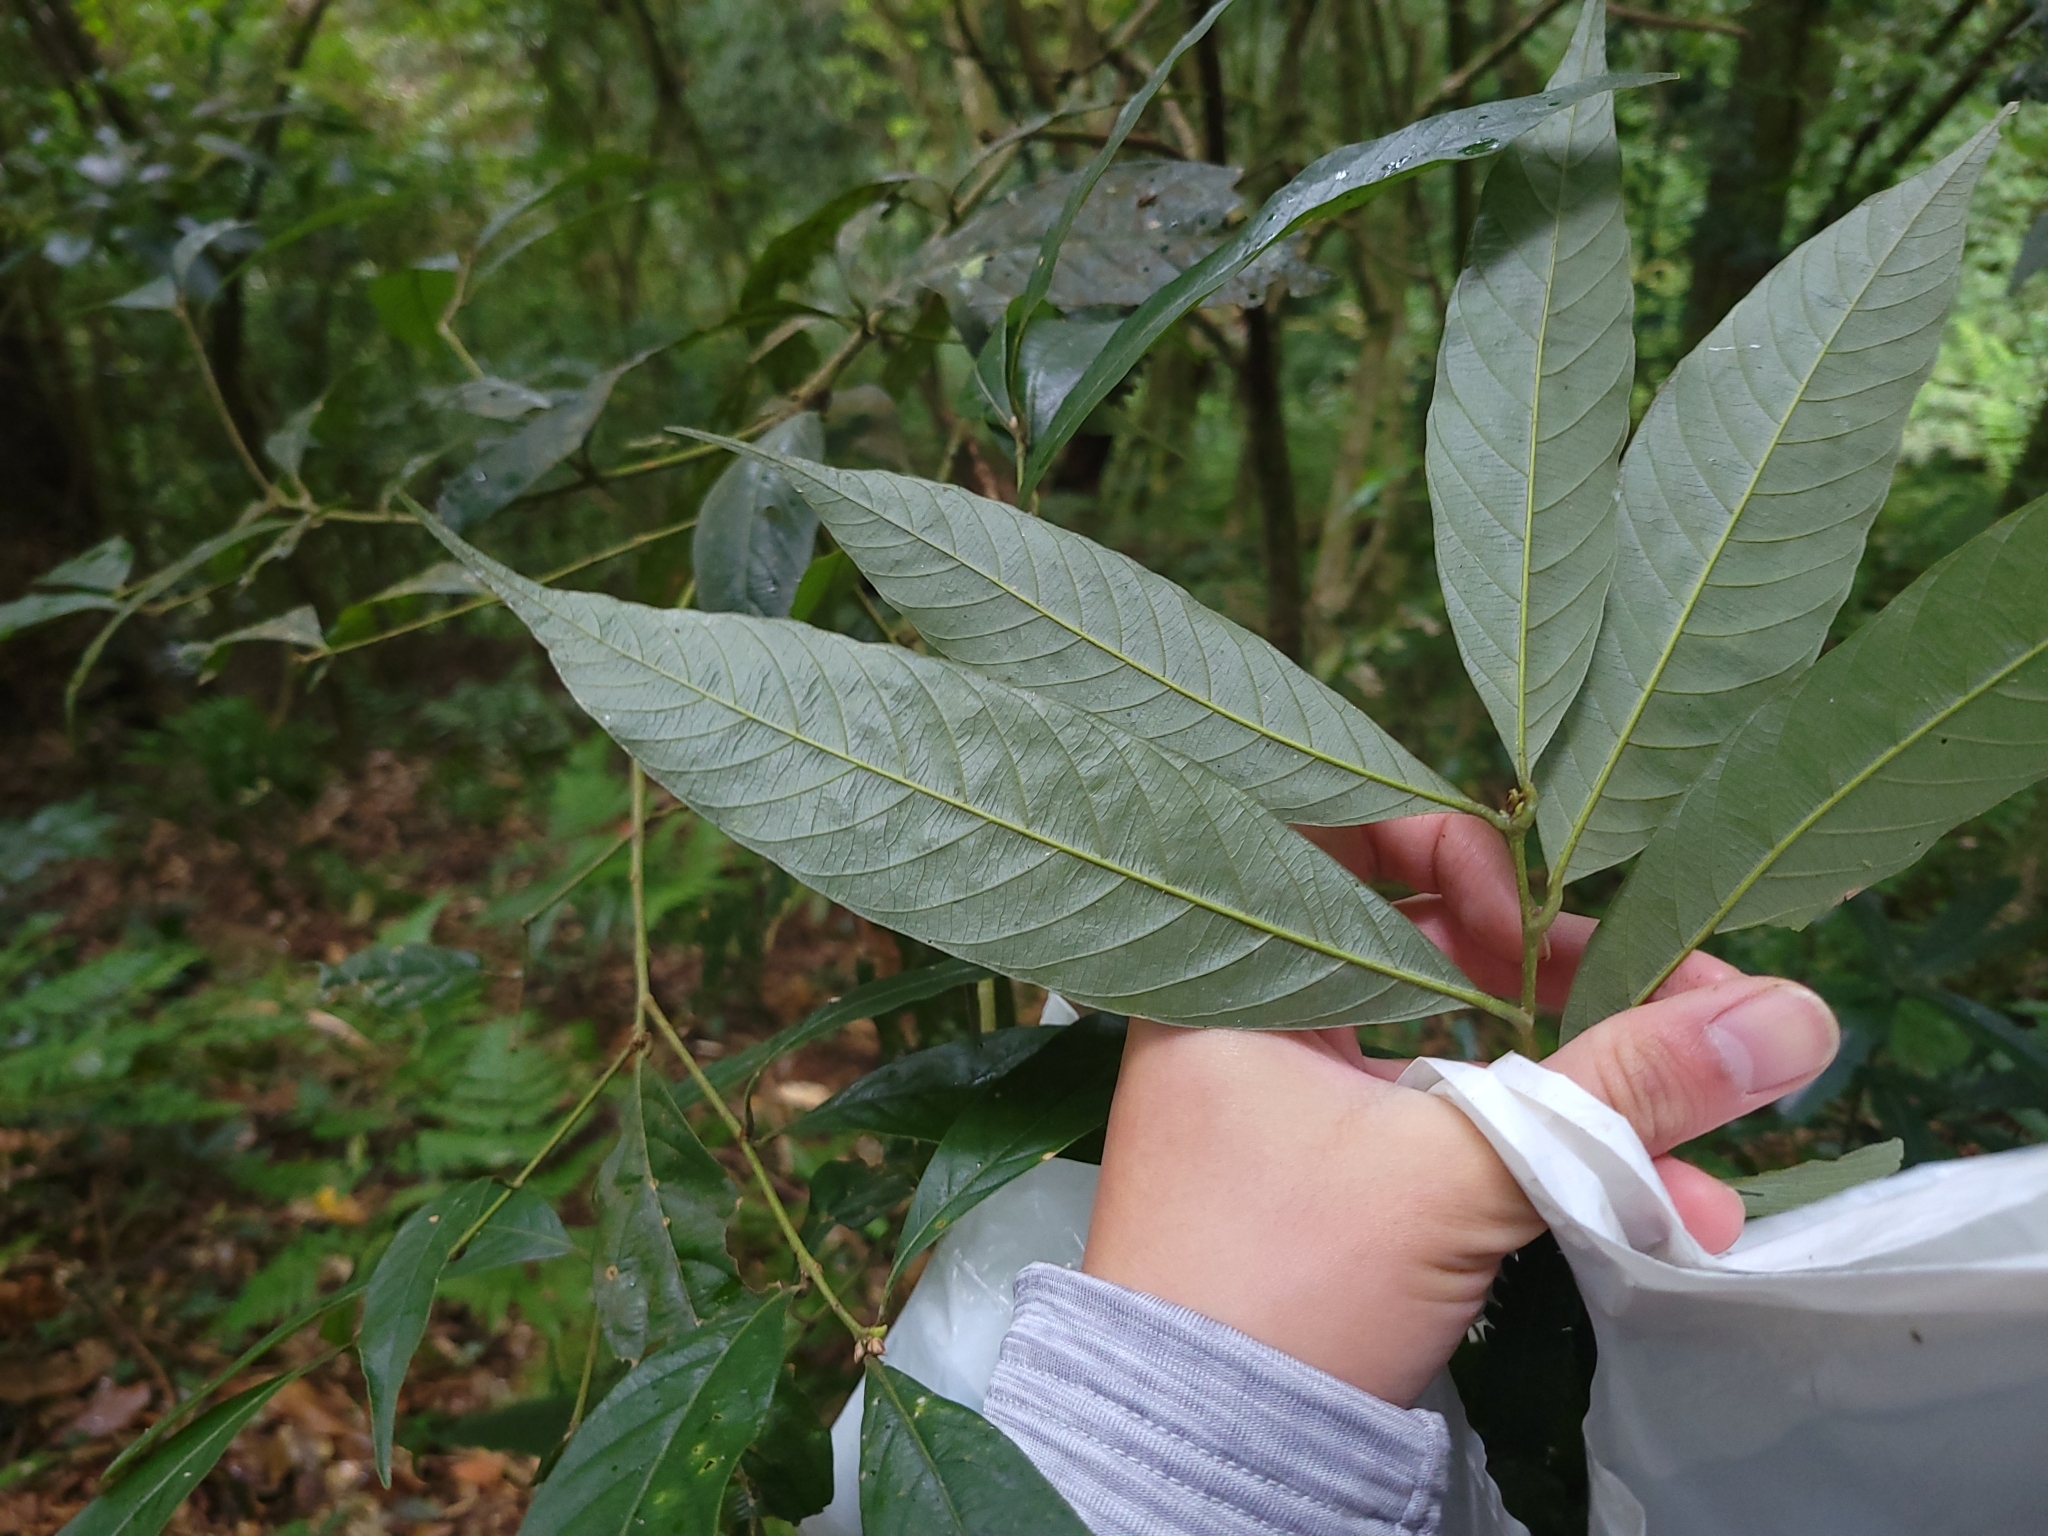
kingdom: Plantae
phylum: Tracheophyta
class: Magnoliopsida
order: Fagales
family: Fagaceae
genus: Lithocarpus
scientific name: Lithocarpus amygdalifolius
